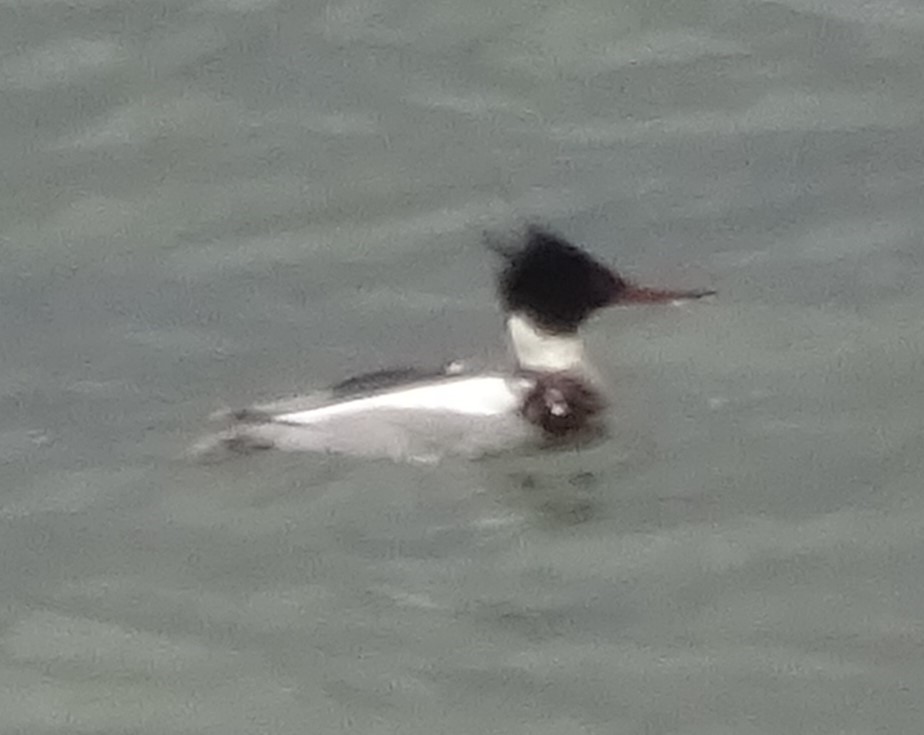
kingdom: Animalia
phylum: Chordata
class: Aves
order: Anseriformes
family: Anatidae
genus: Mergus
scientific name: Mergus serrator
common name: Red-breasted merganser
